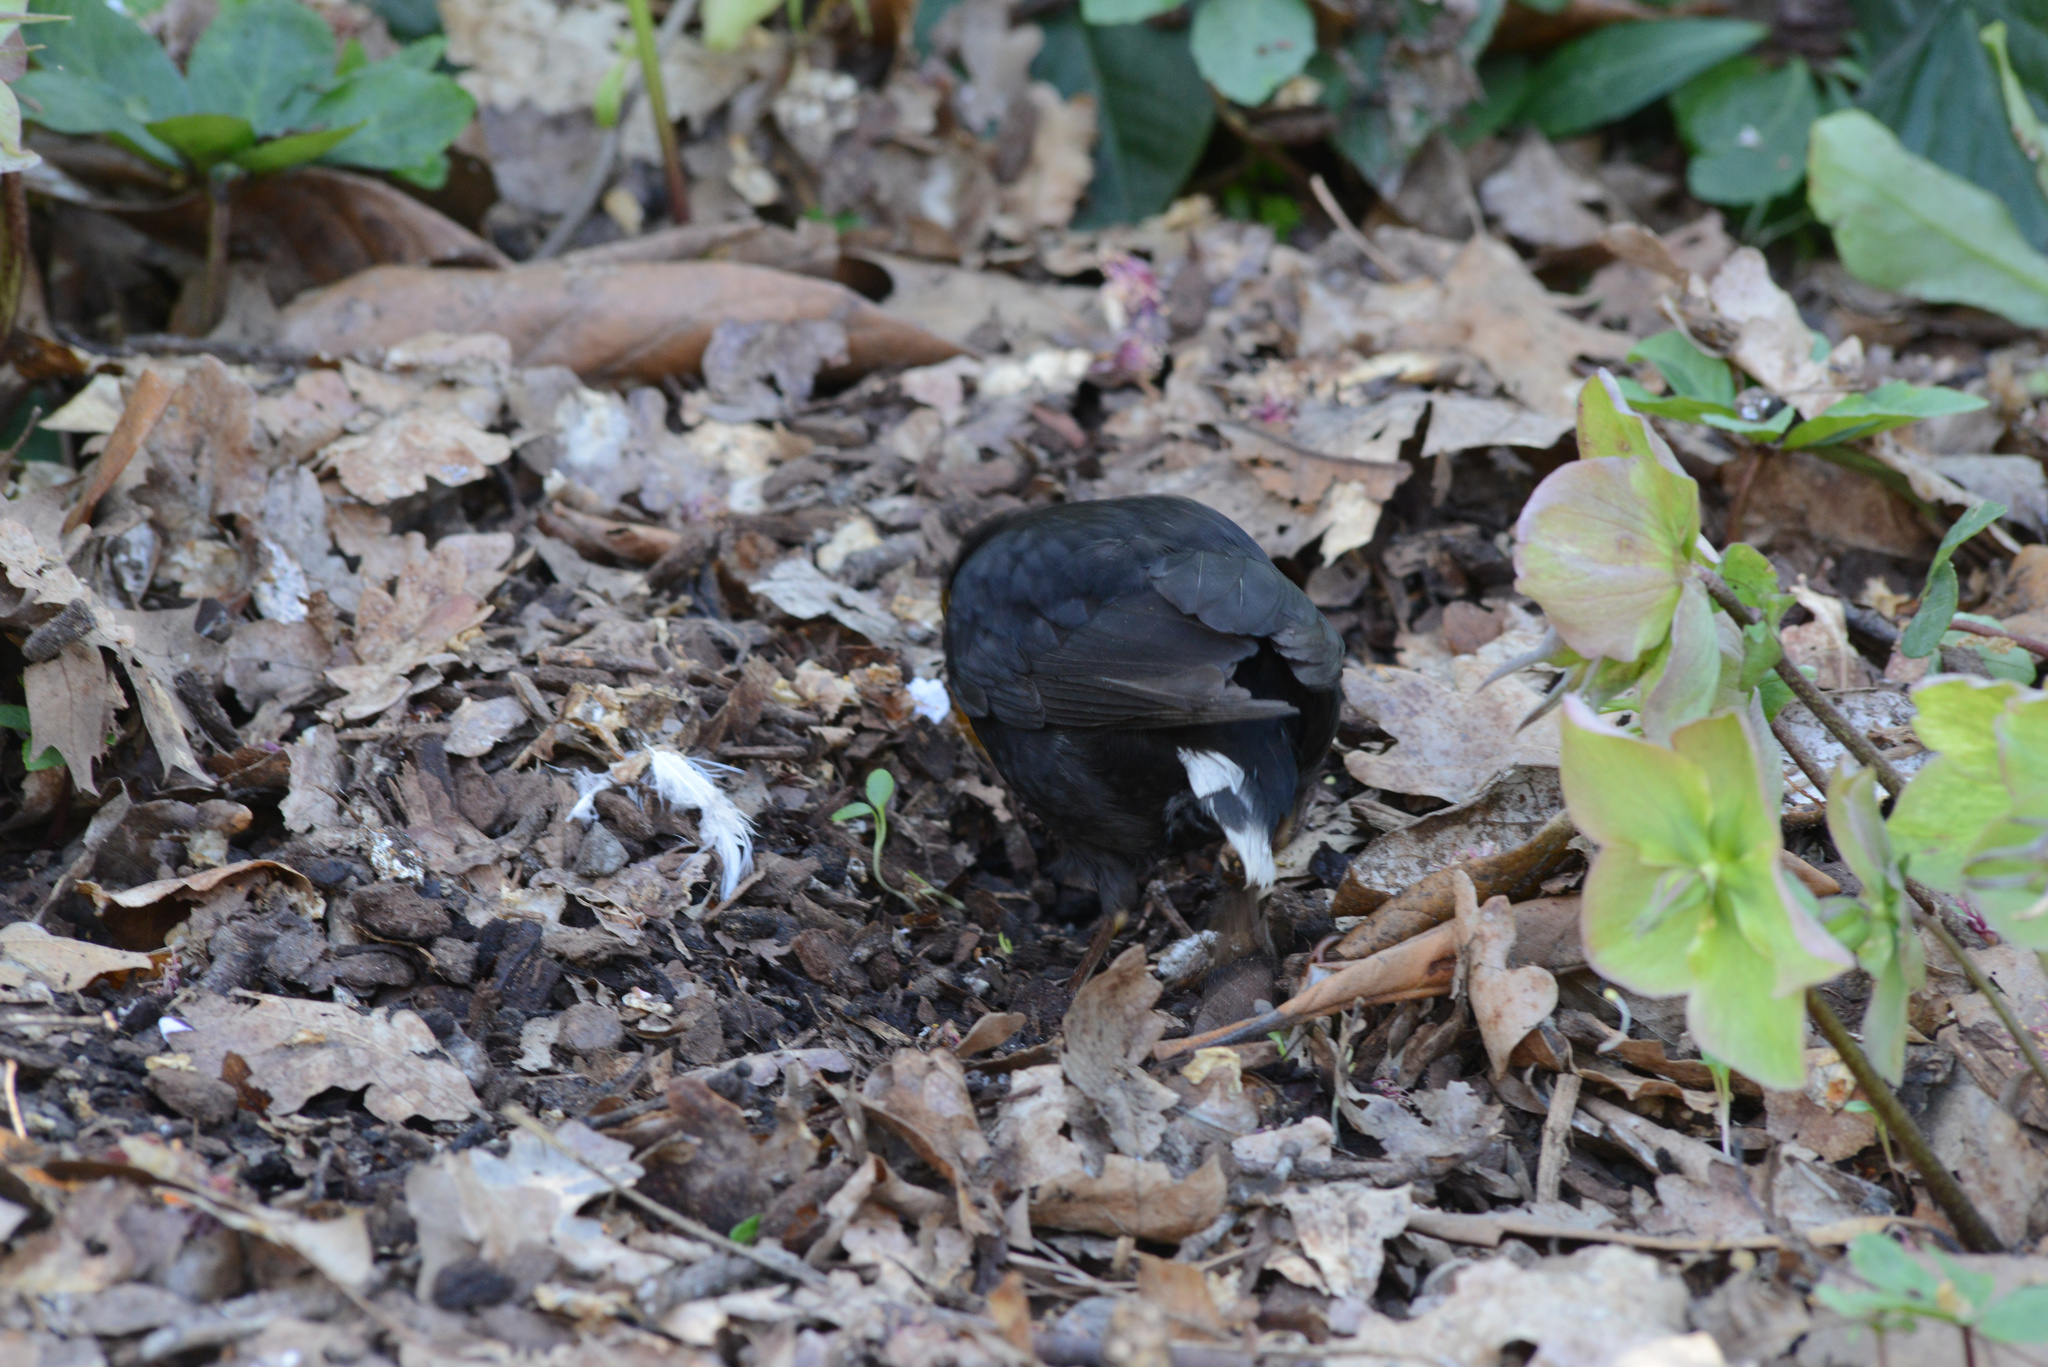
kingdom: Animalia
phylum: Chordata
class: Aves
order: Passeriformes
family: Turdidae
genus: Turdus
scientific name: Turdus merula
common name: Common blackbird
